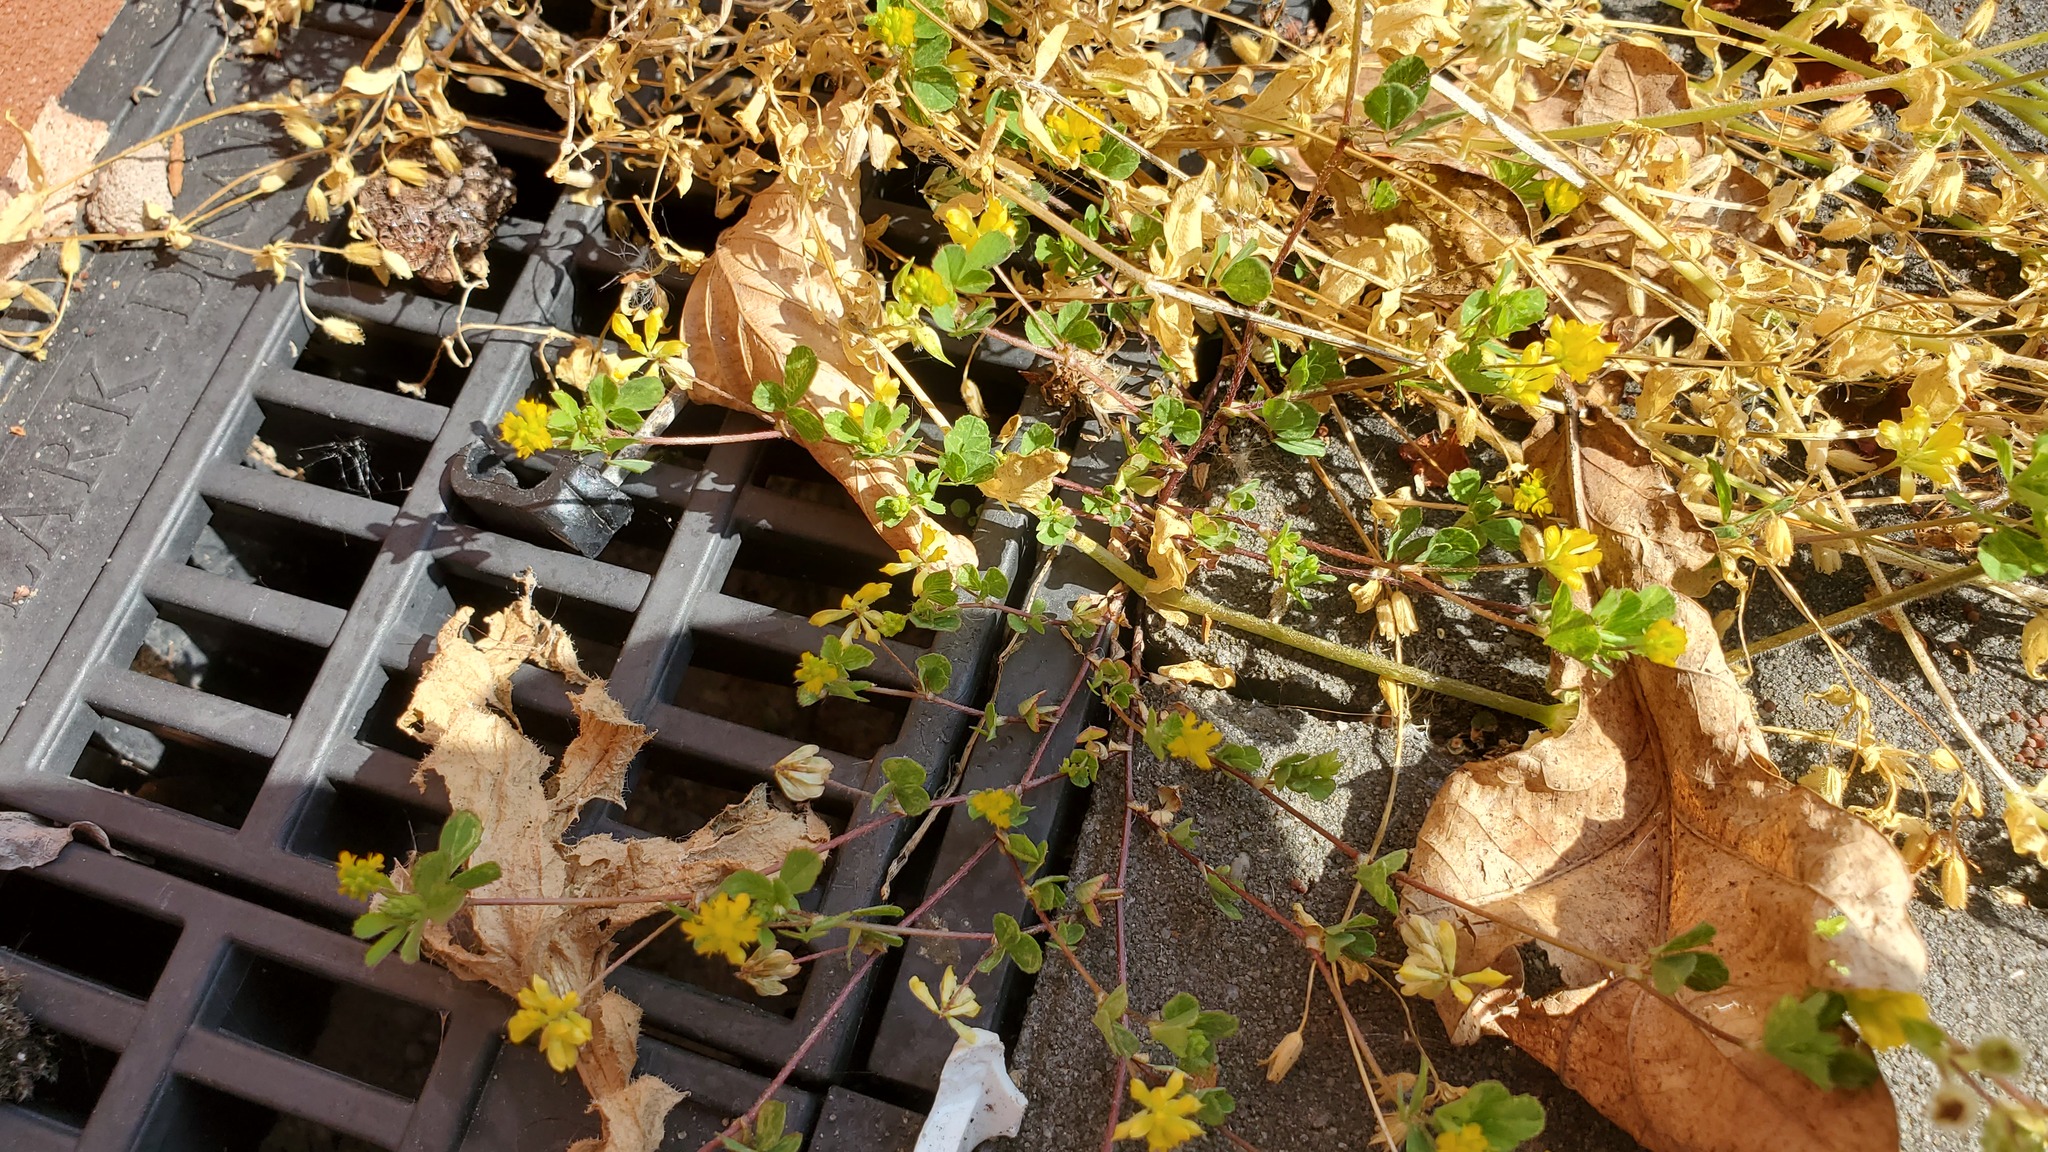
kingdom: Plantae
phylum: Tracheophyta
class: Magnoliopsida
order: Fabales
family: Fabaceae
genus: Trifolium
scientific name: Trifolium dubium
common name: Suckling clover
